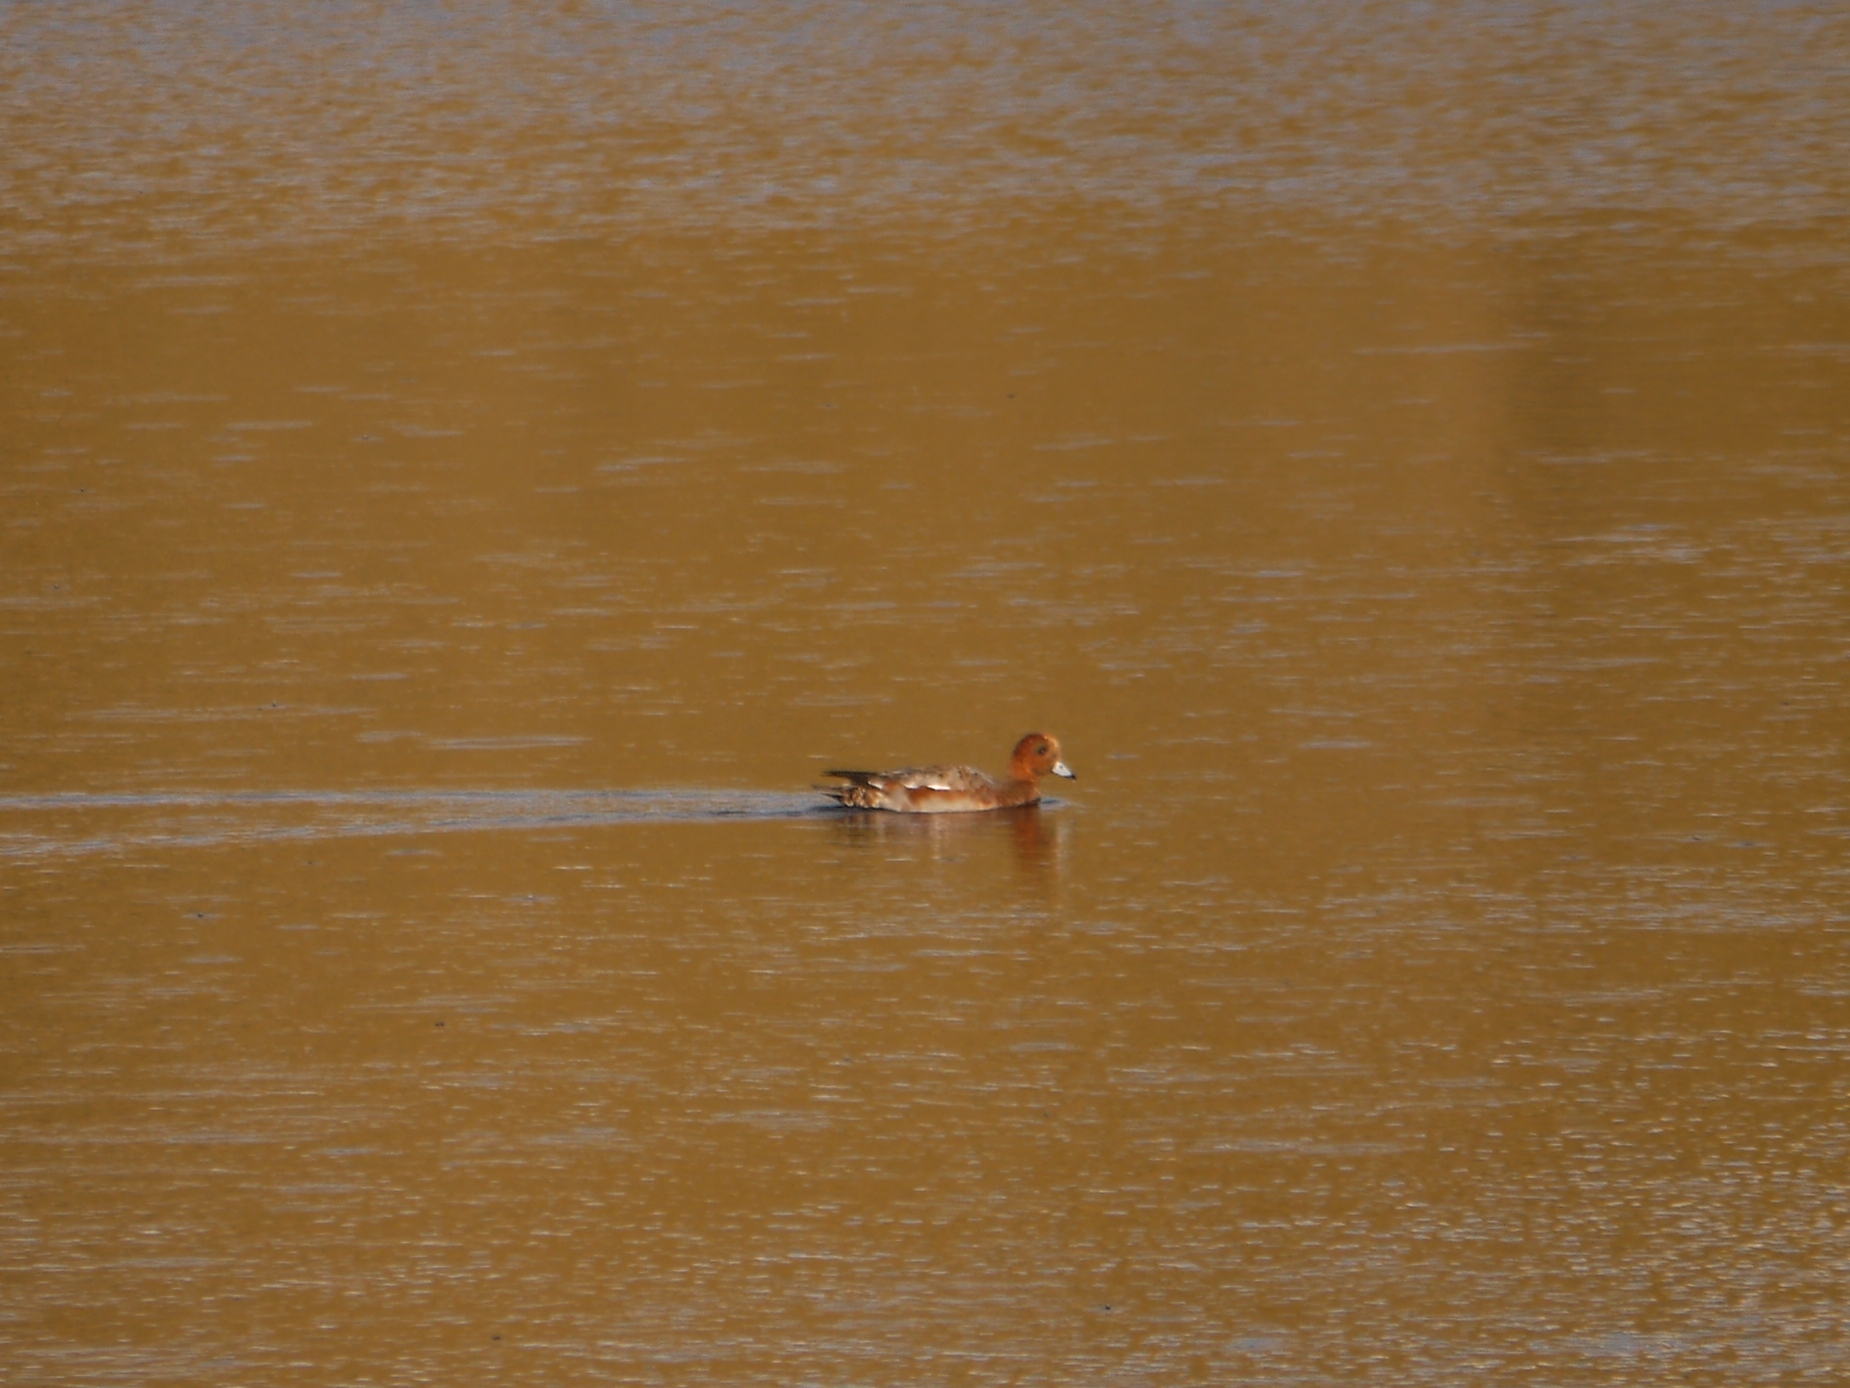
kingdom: Animalia
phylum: Chordata
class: Aves
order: Anseriformes
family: Anatidae
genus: Mareca
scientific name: Mareca penelope
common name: Eurasian wigeon
